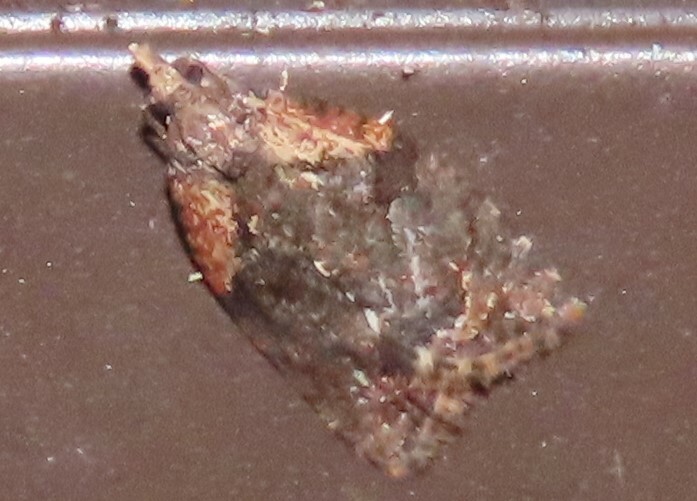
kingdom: Animalia
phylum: Arthropoda
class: Insecta
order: Lepidoptera
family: Tortricidae
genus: Capua
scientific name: Capua intractana
